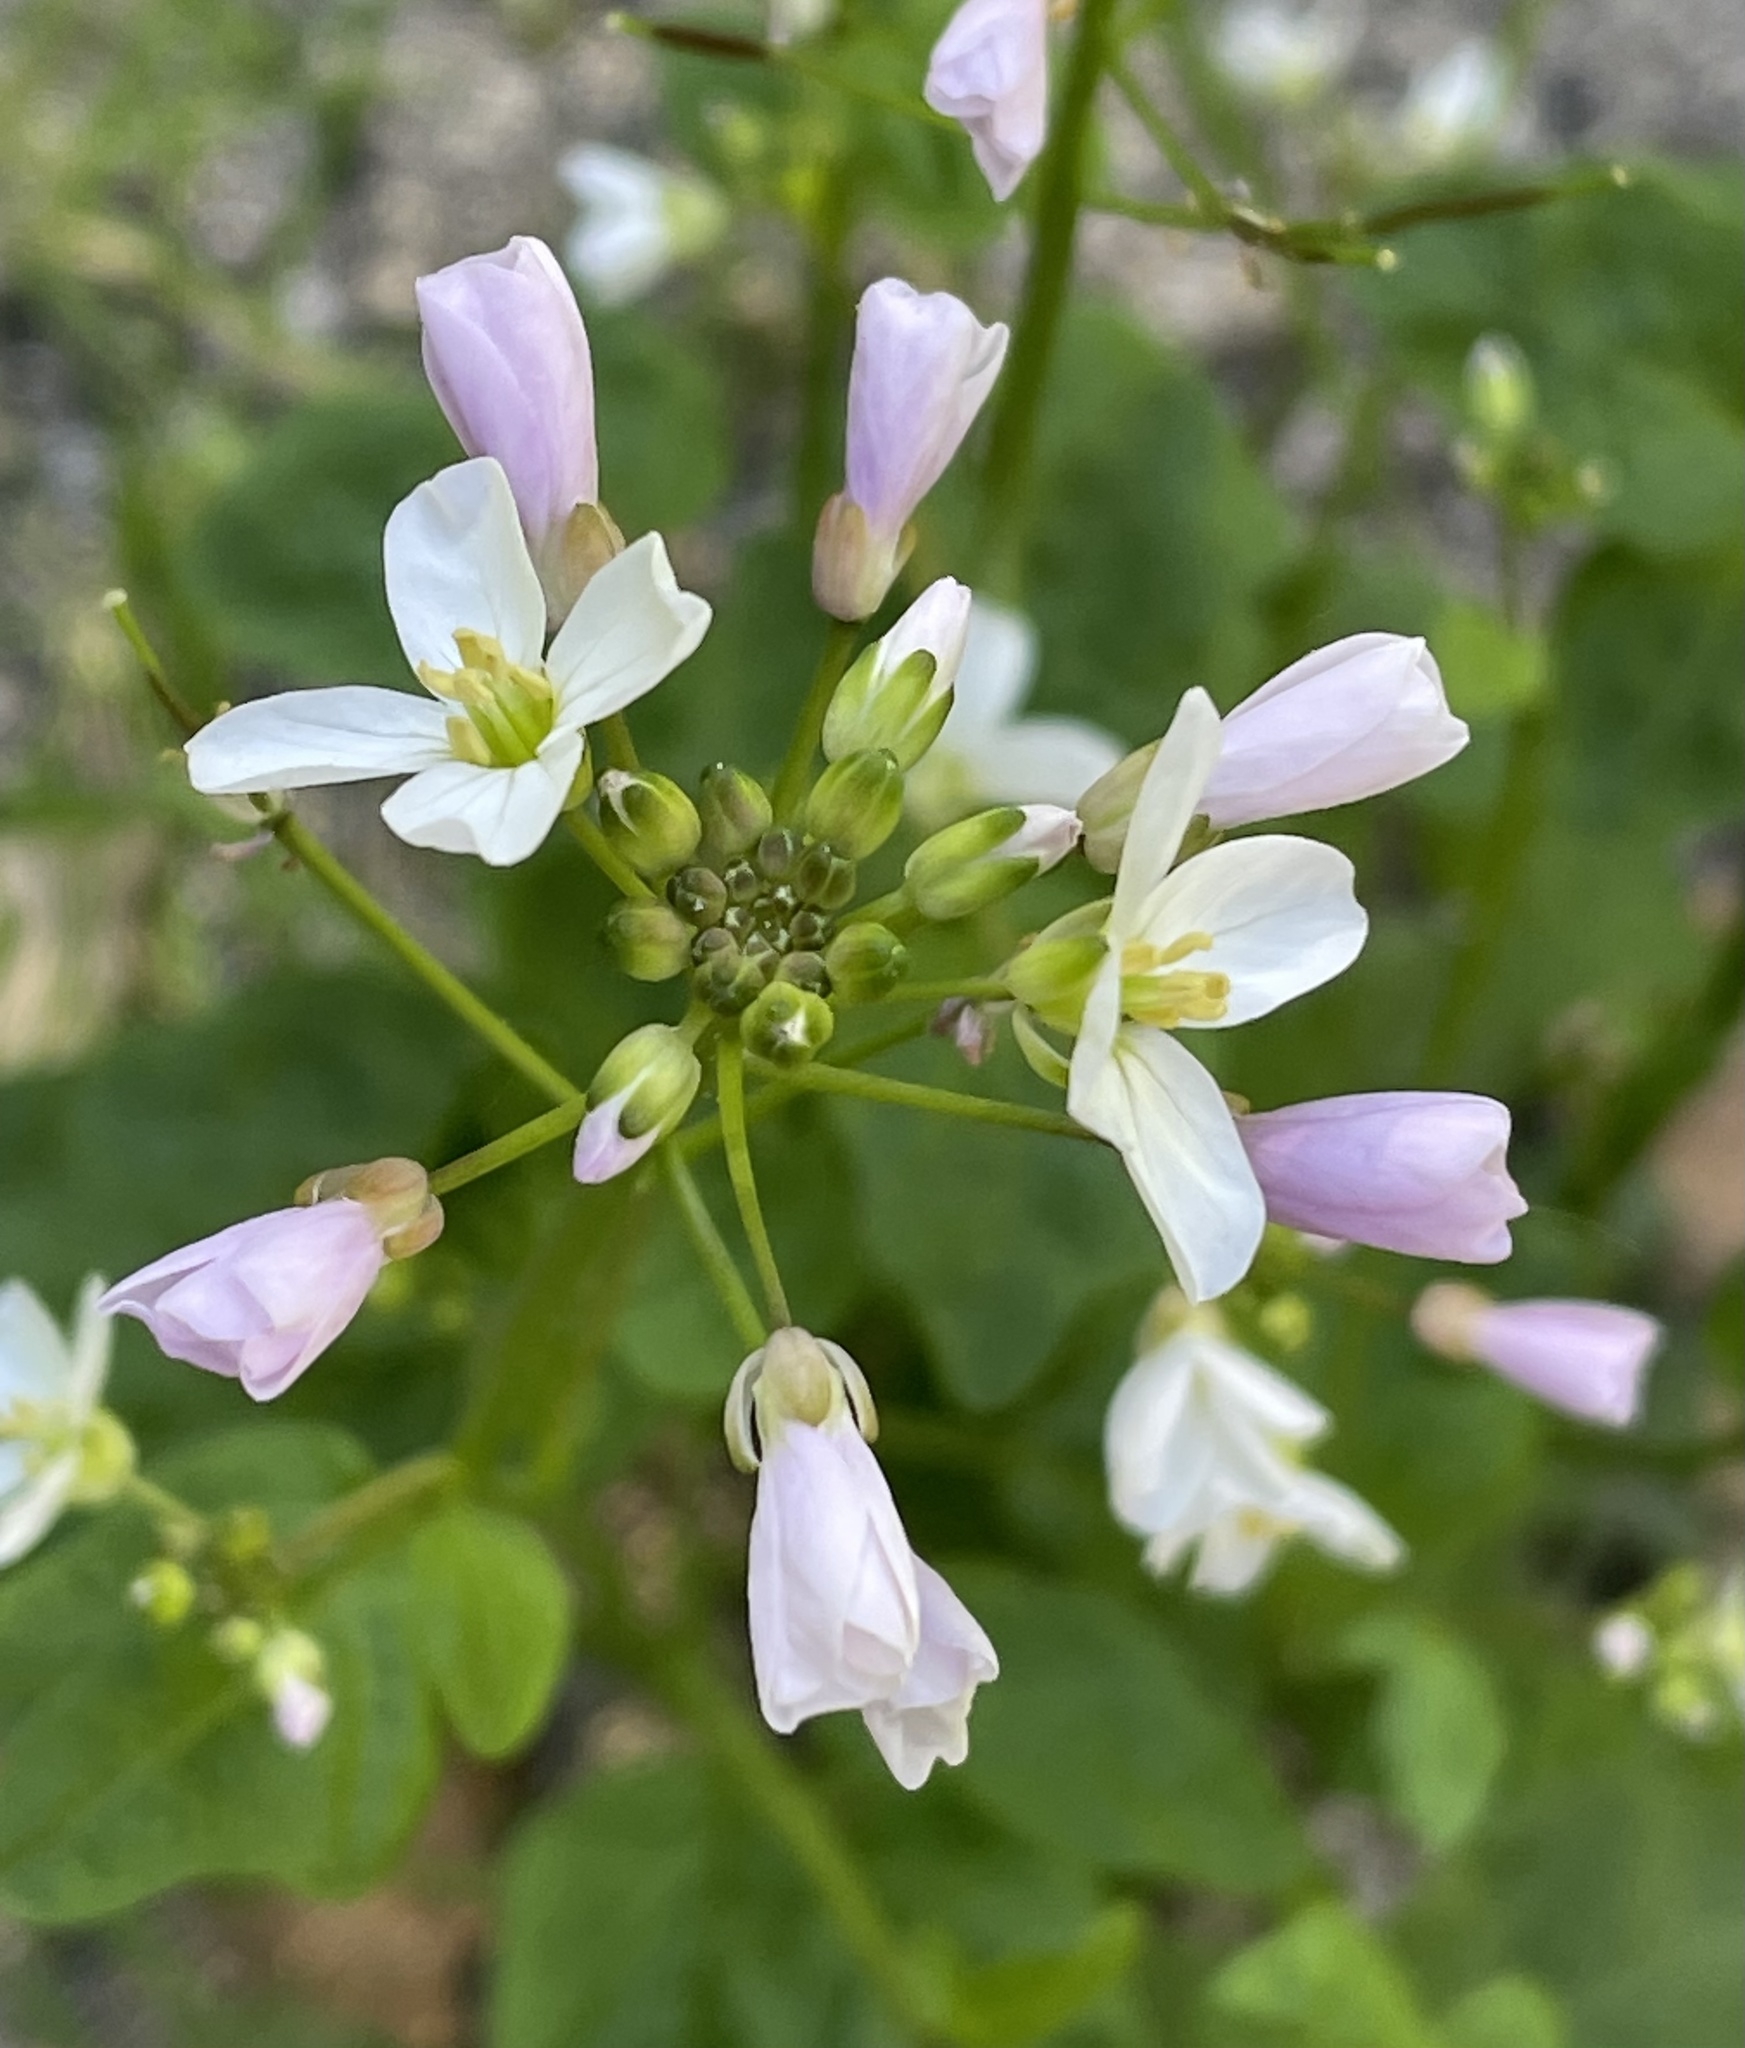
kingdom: Plantae
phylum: Tracheophyta
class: Magnoliopsida
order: Brassicales
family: Brassicaceae
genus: Cardamine
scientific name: Cardamine californica
